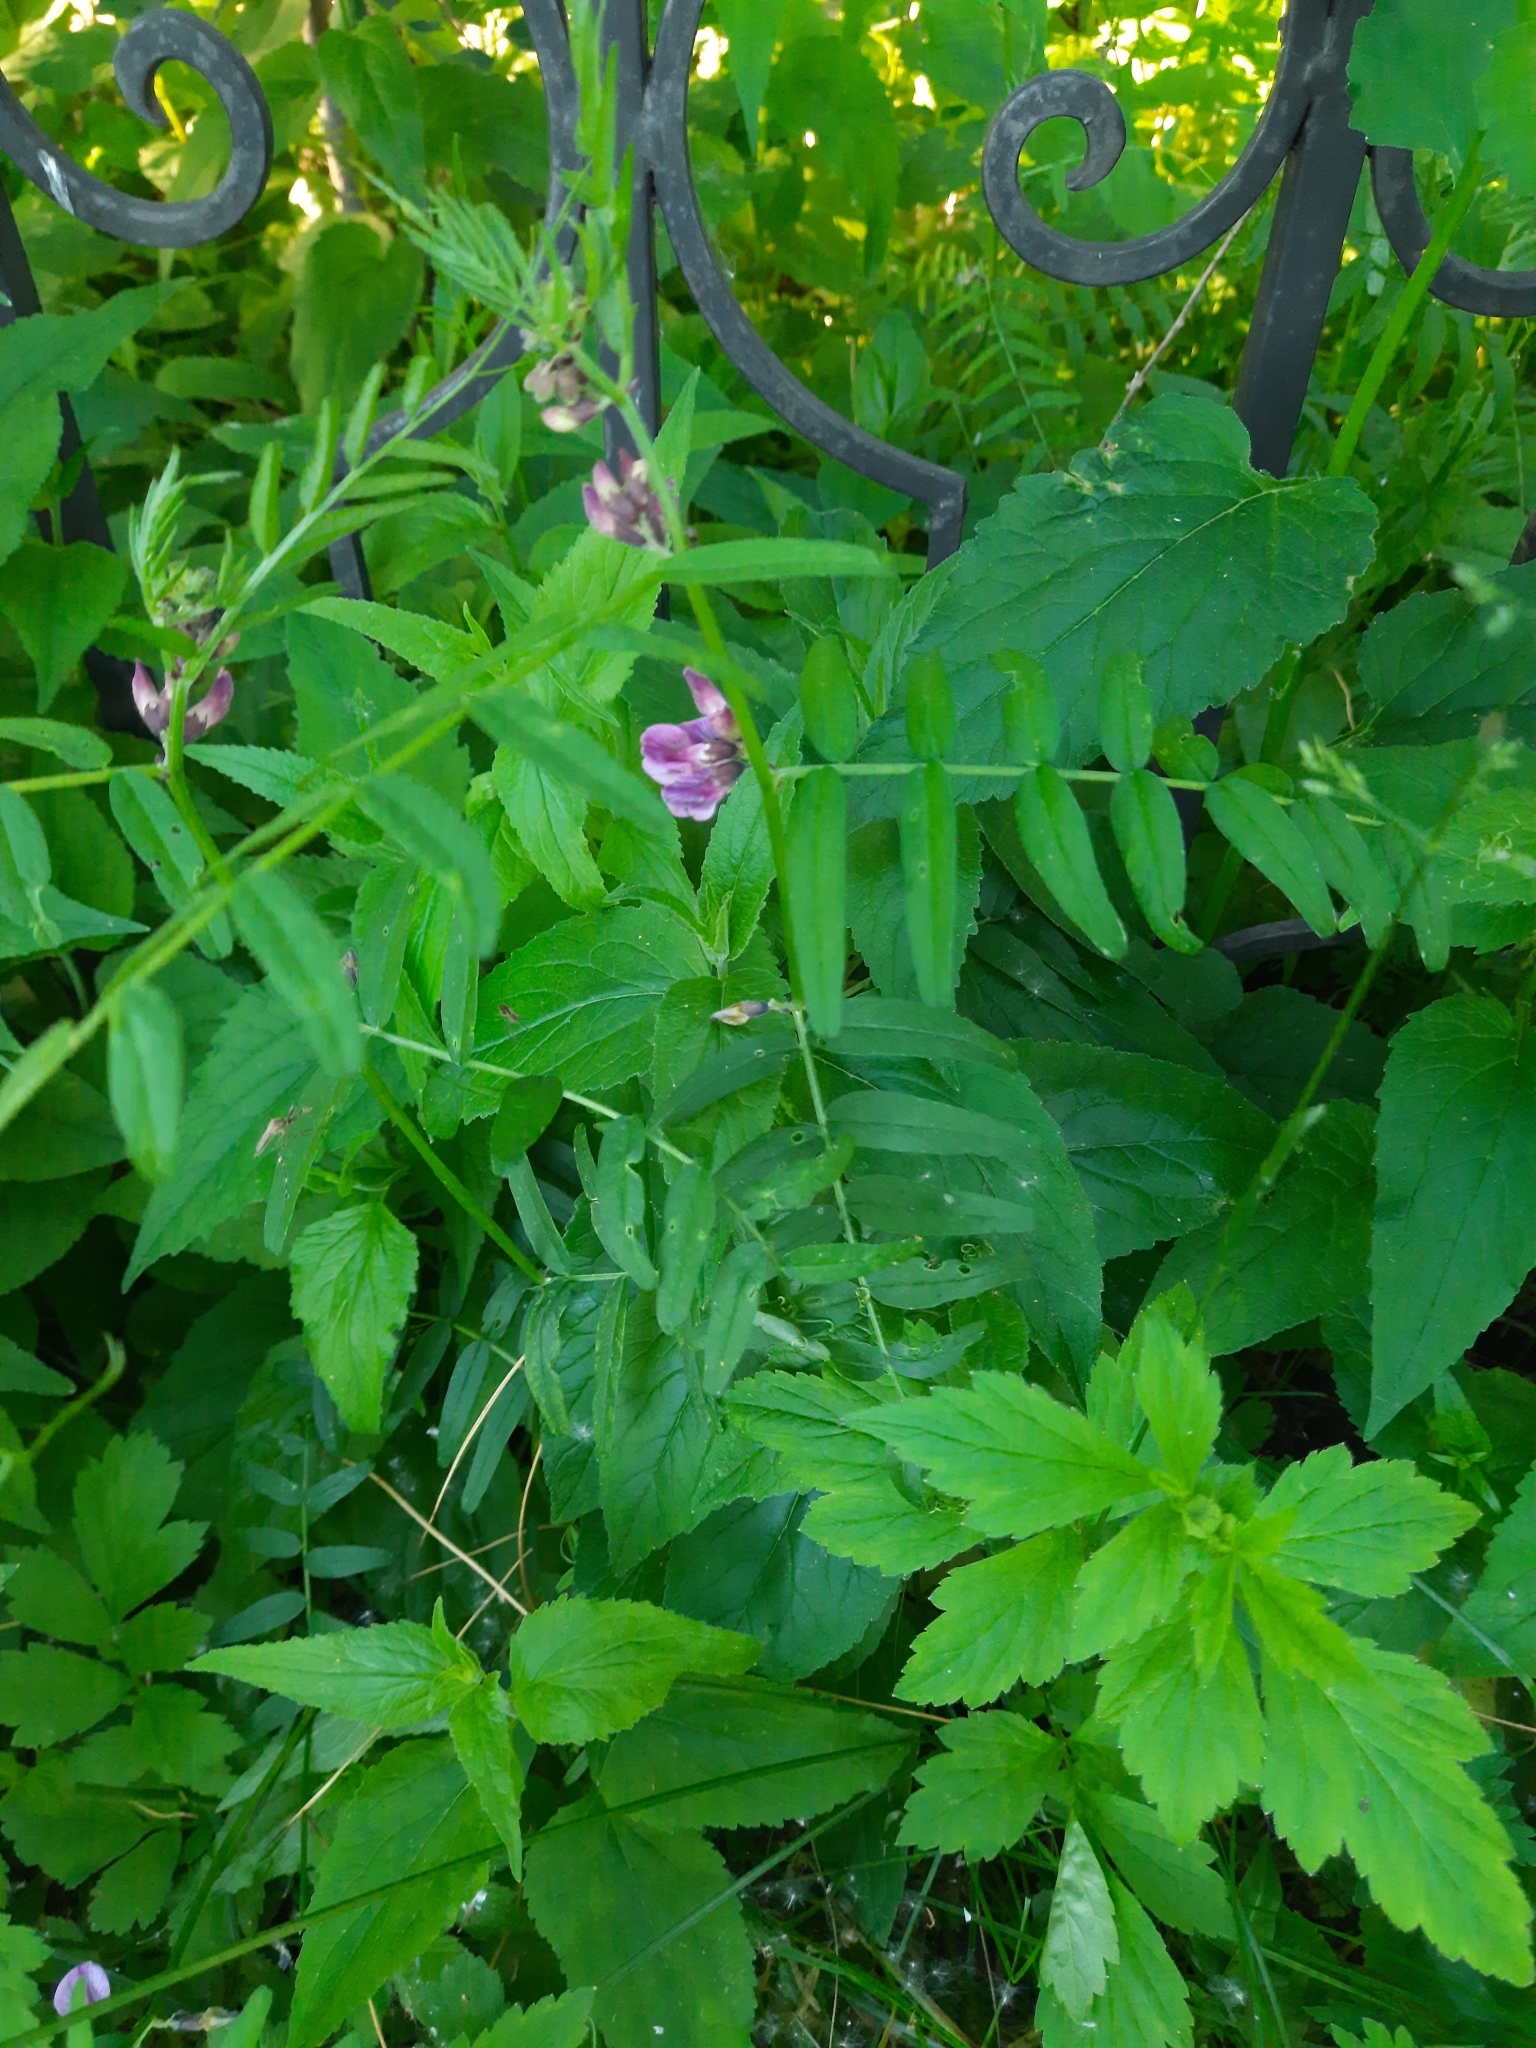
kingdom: Plantae
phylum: Tracheophyta
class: Magnoliopsida
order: Fabales
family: Fabaceae
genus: Vicia
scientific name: Vicia sepium
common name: Bush vetch
